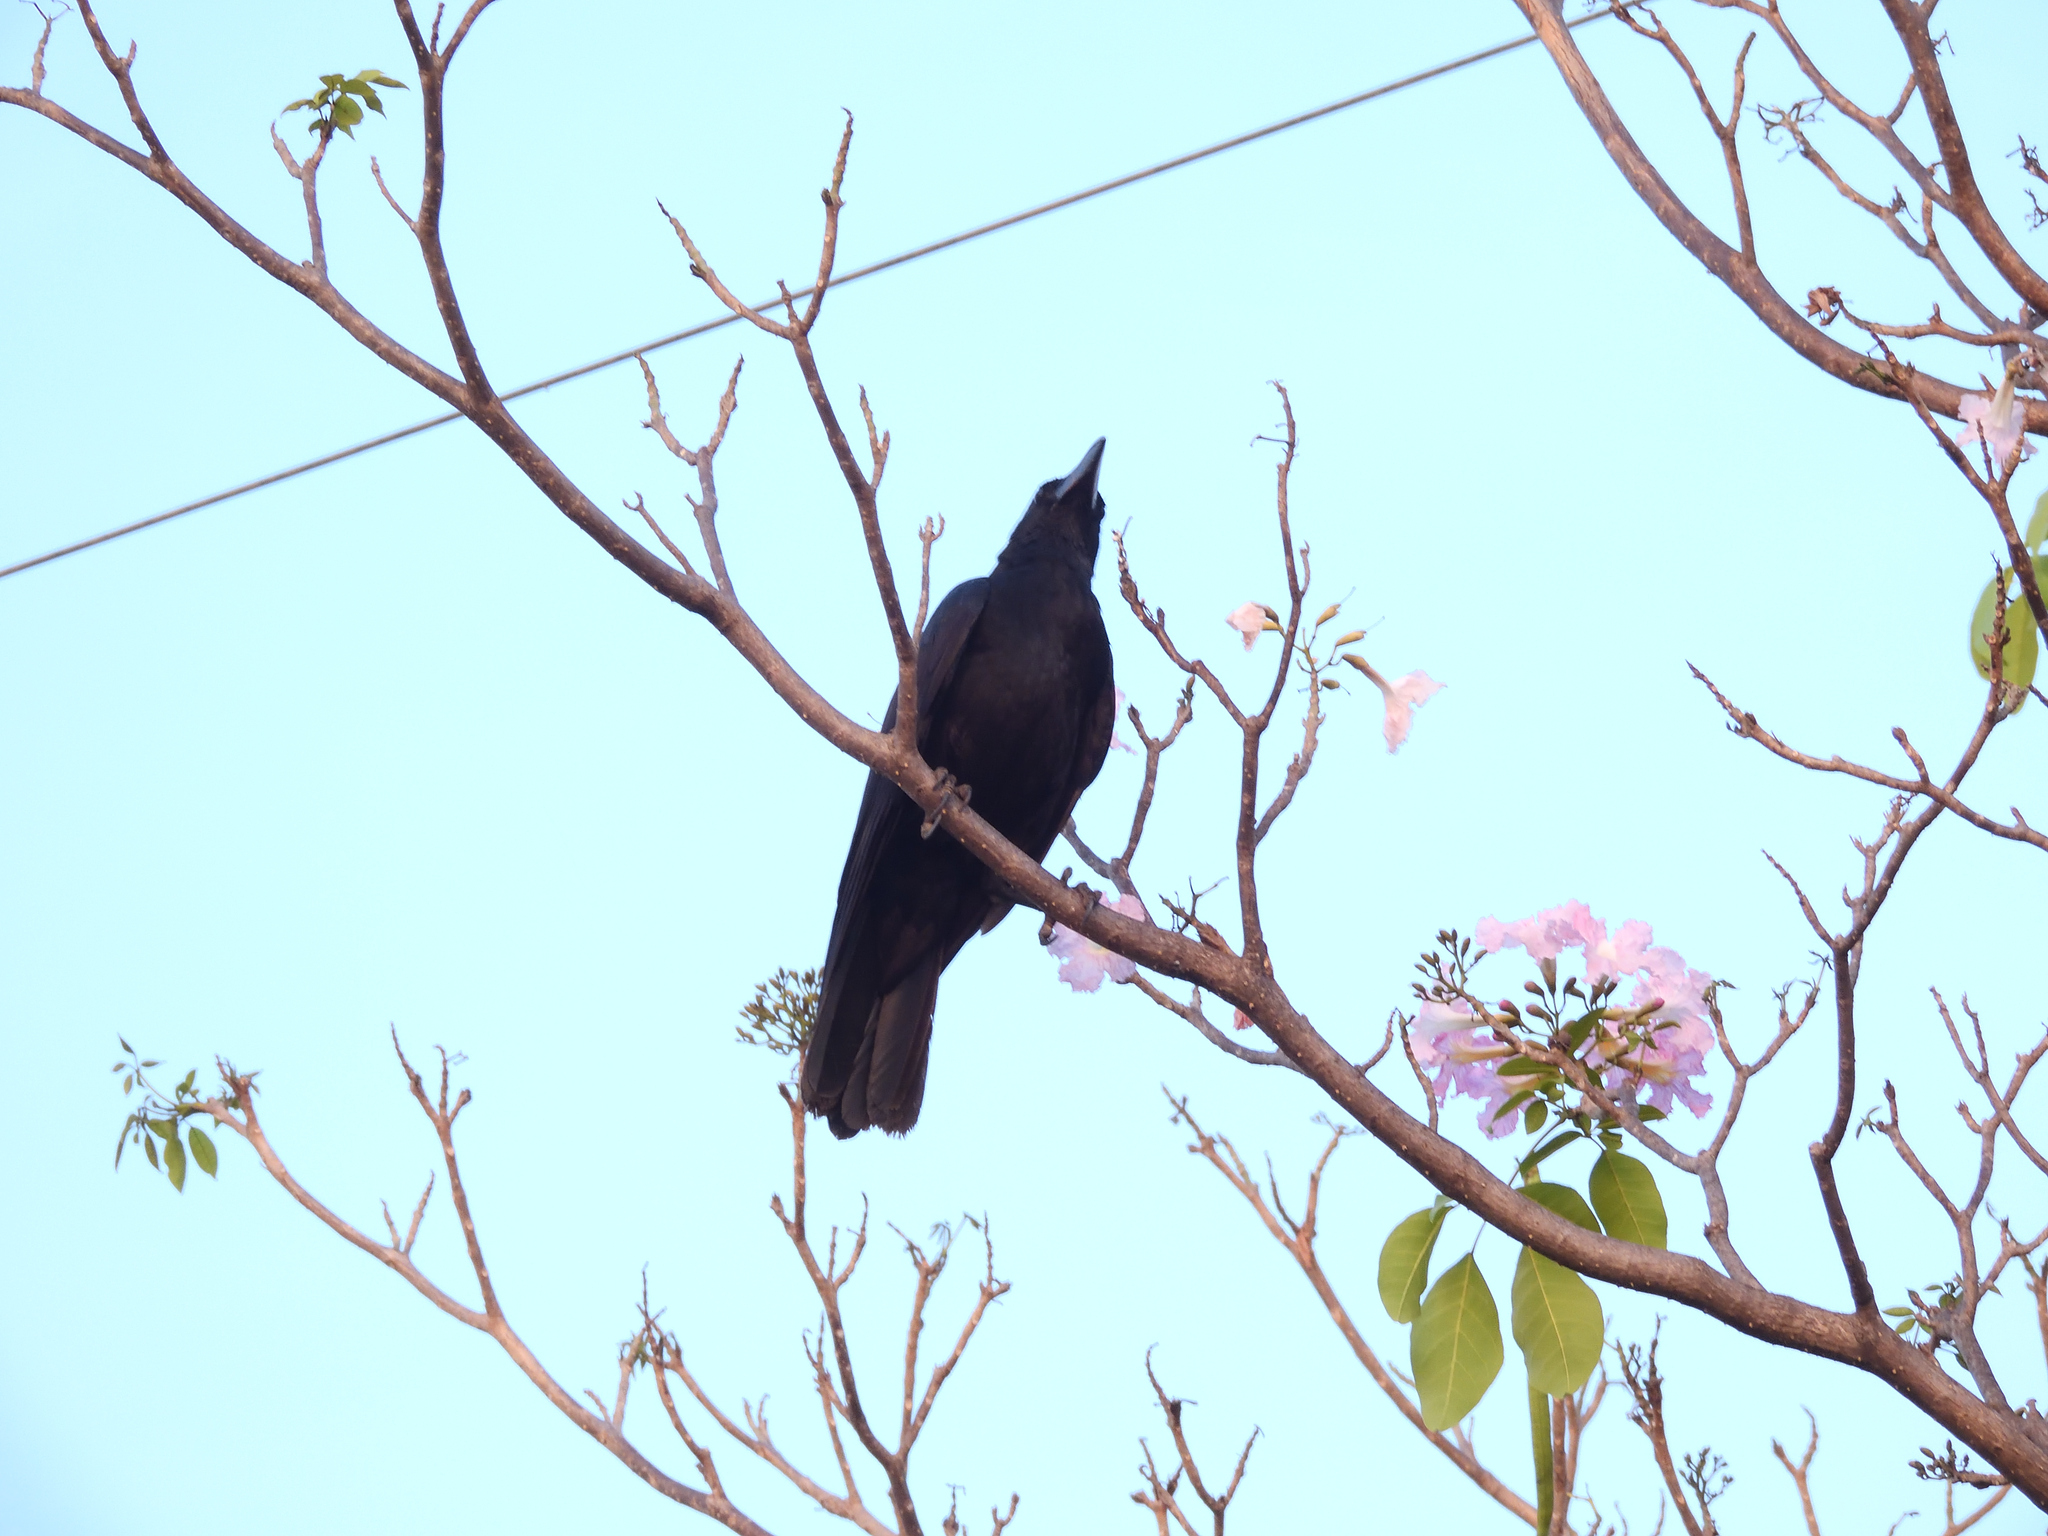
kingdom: Animalia
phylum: Chordata
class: Aves
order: Passeriformes
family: Corvidae
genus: Corvus
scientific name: Corvus macrorhynchos
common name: Large-billed crow
